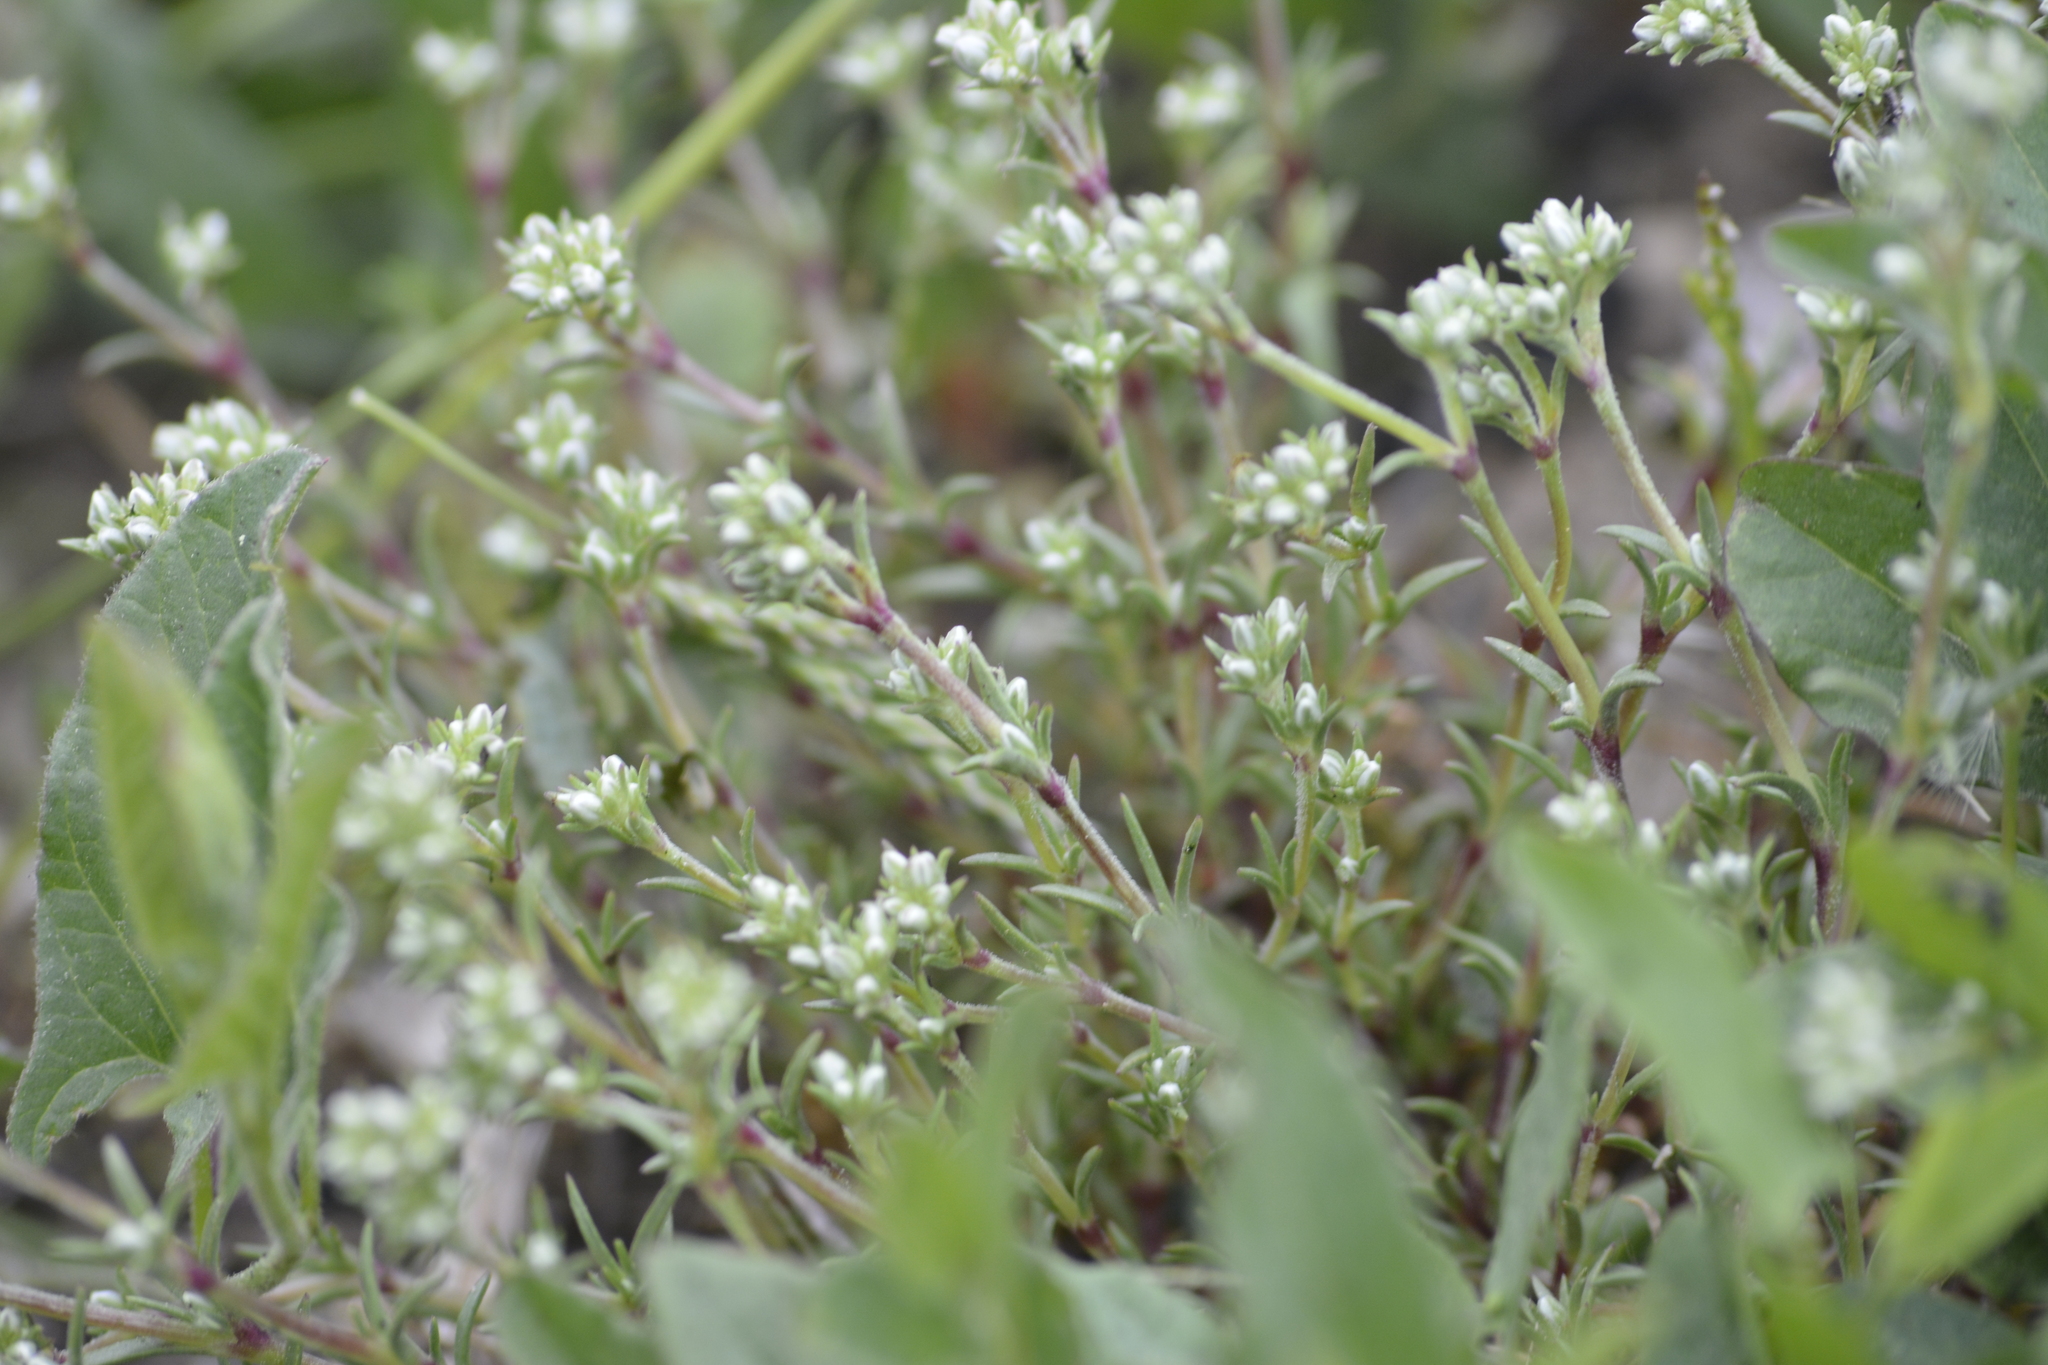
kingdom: Plantae
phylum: Tracheophyta
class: Magnoliopsida
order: Caryophyllales
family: Caryophyllaceae
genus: Scleranthus
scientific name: Scleranthus perennis
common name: Perennial knawel
